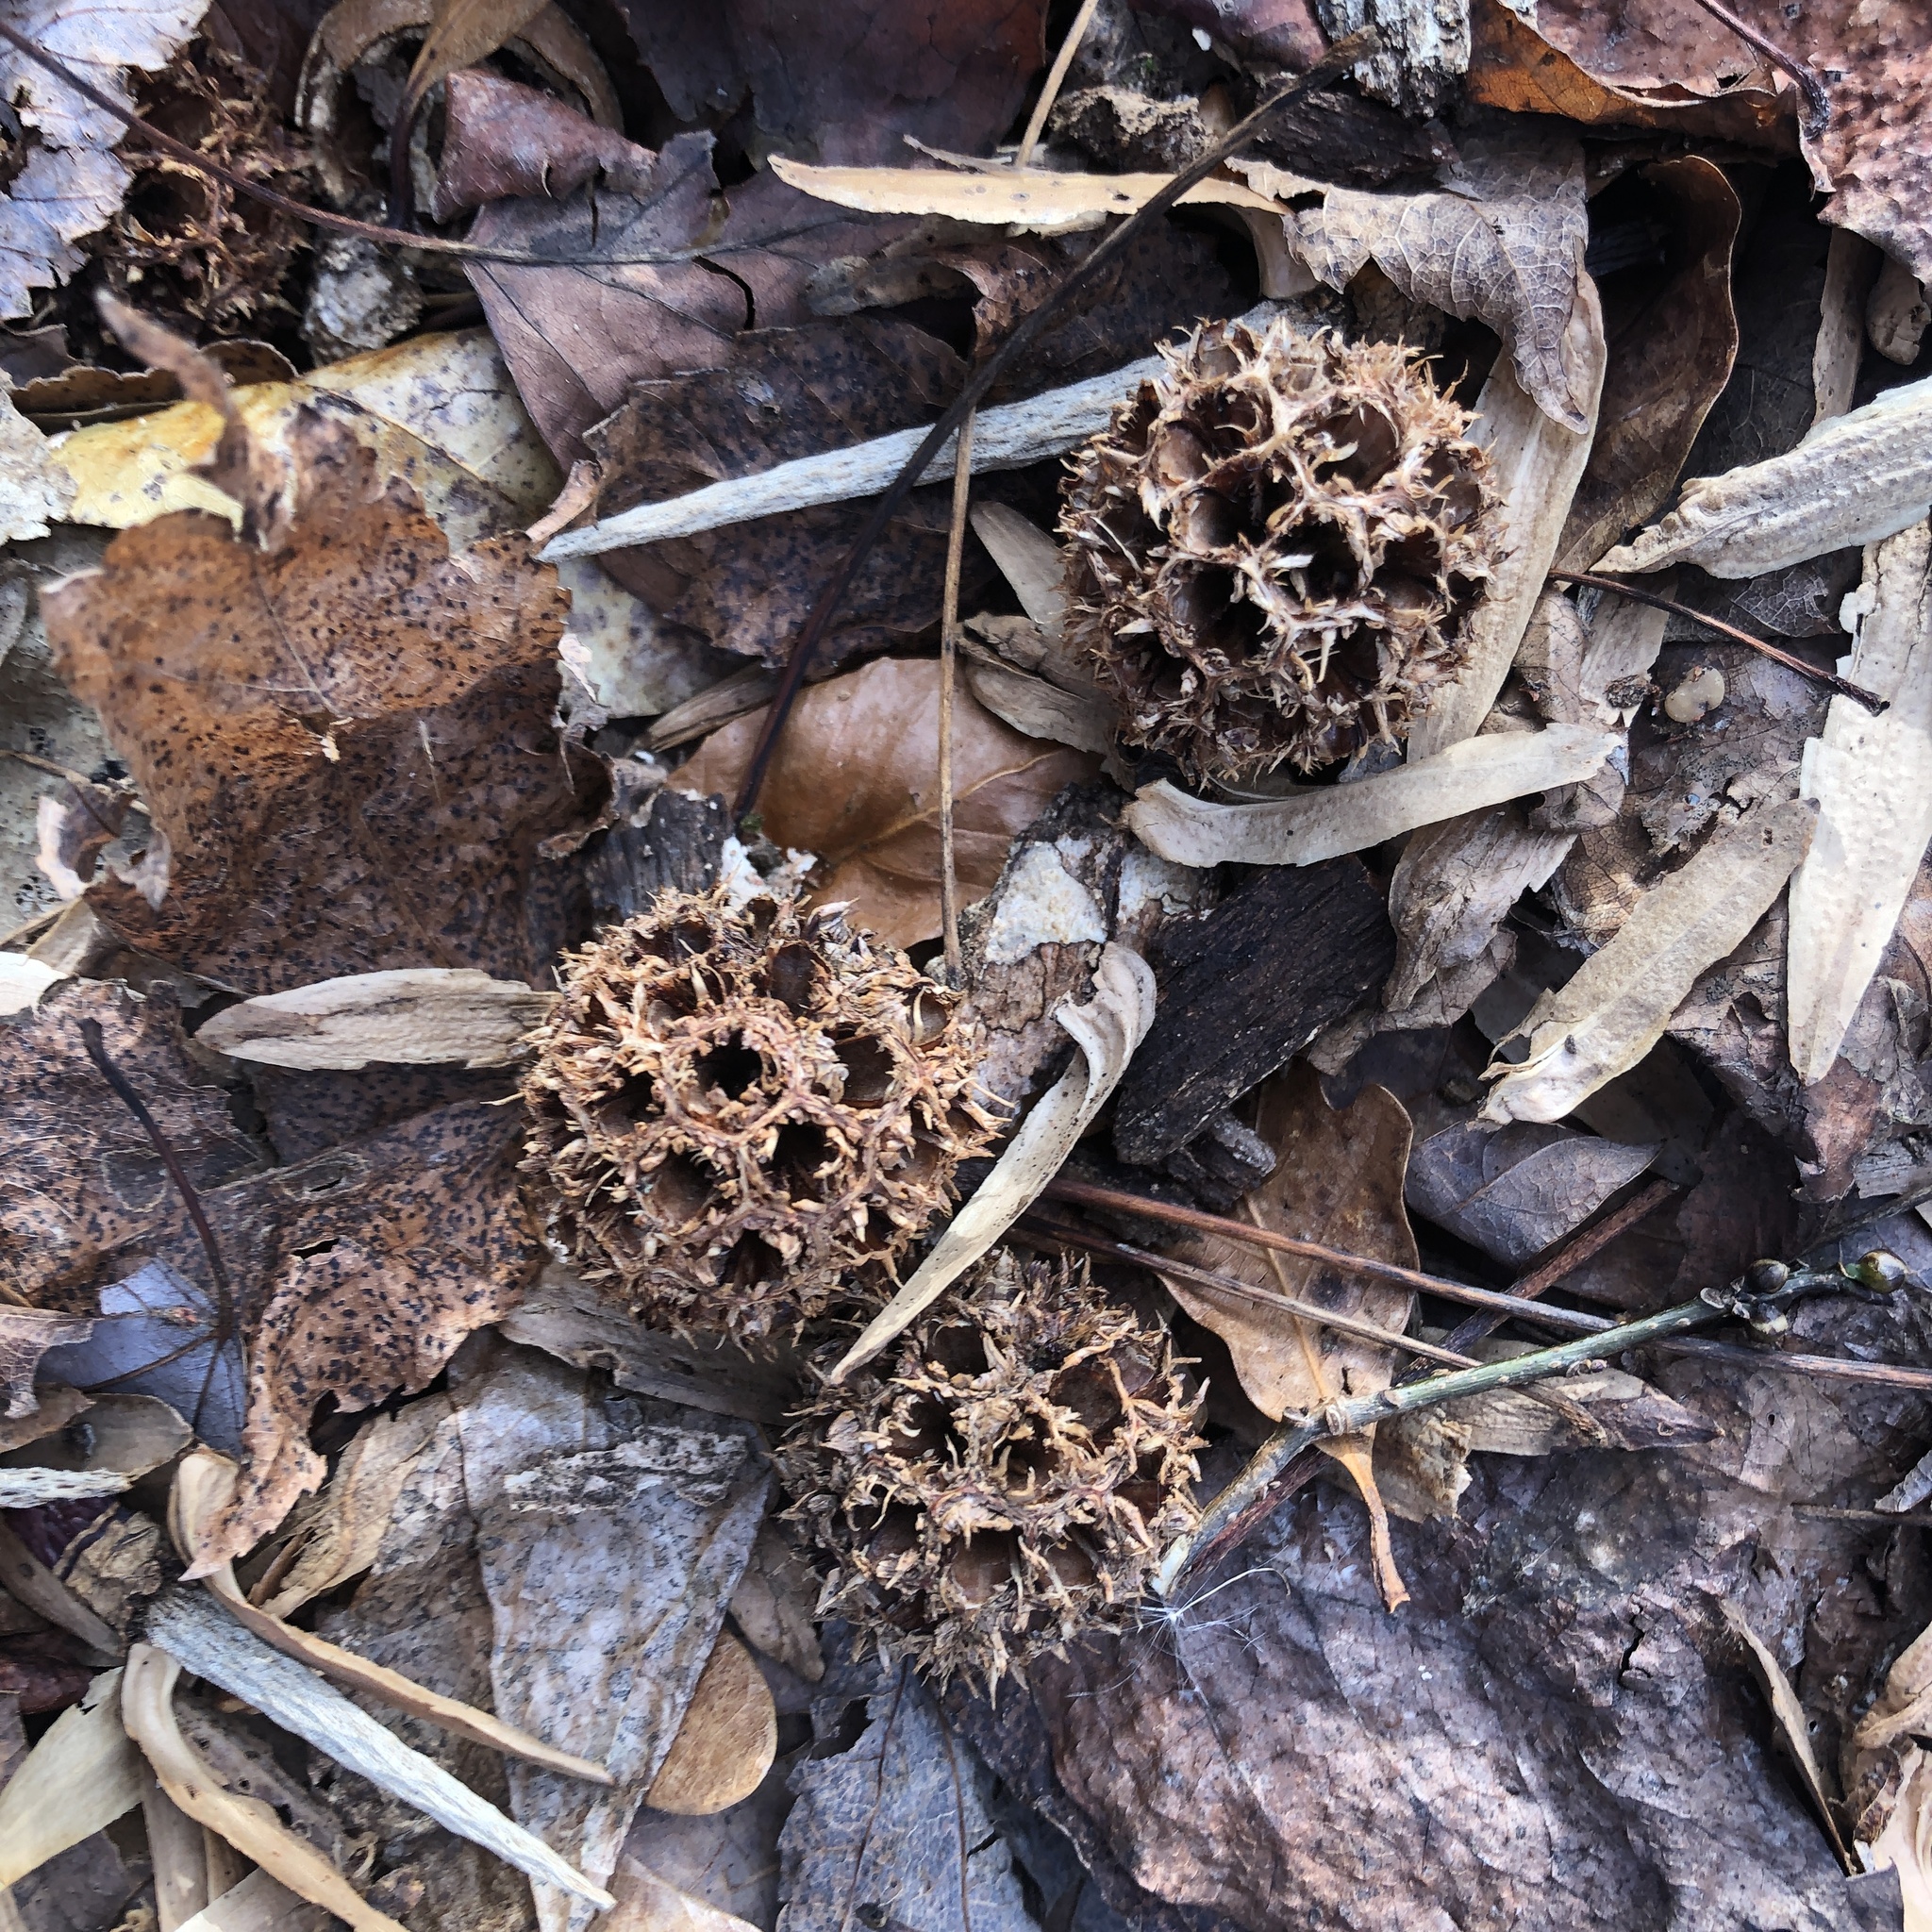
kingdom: Plantae
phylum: Tracheophyta
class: Magnoliopsida
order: Saxifragales
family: Altingiaceae
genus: Liquidambar
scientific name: Liquidambar styraciflua
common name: Sweet gum
